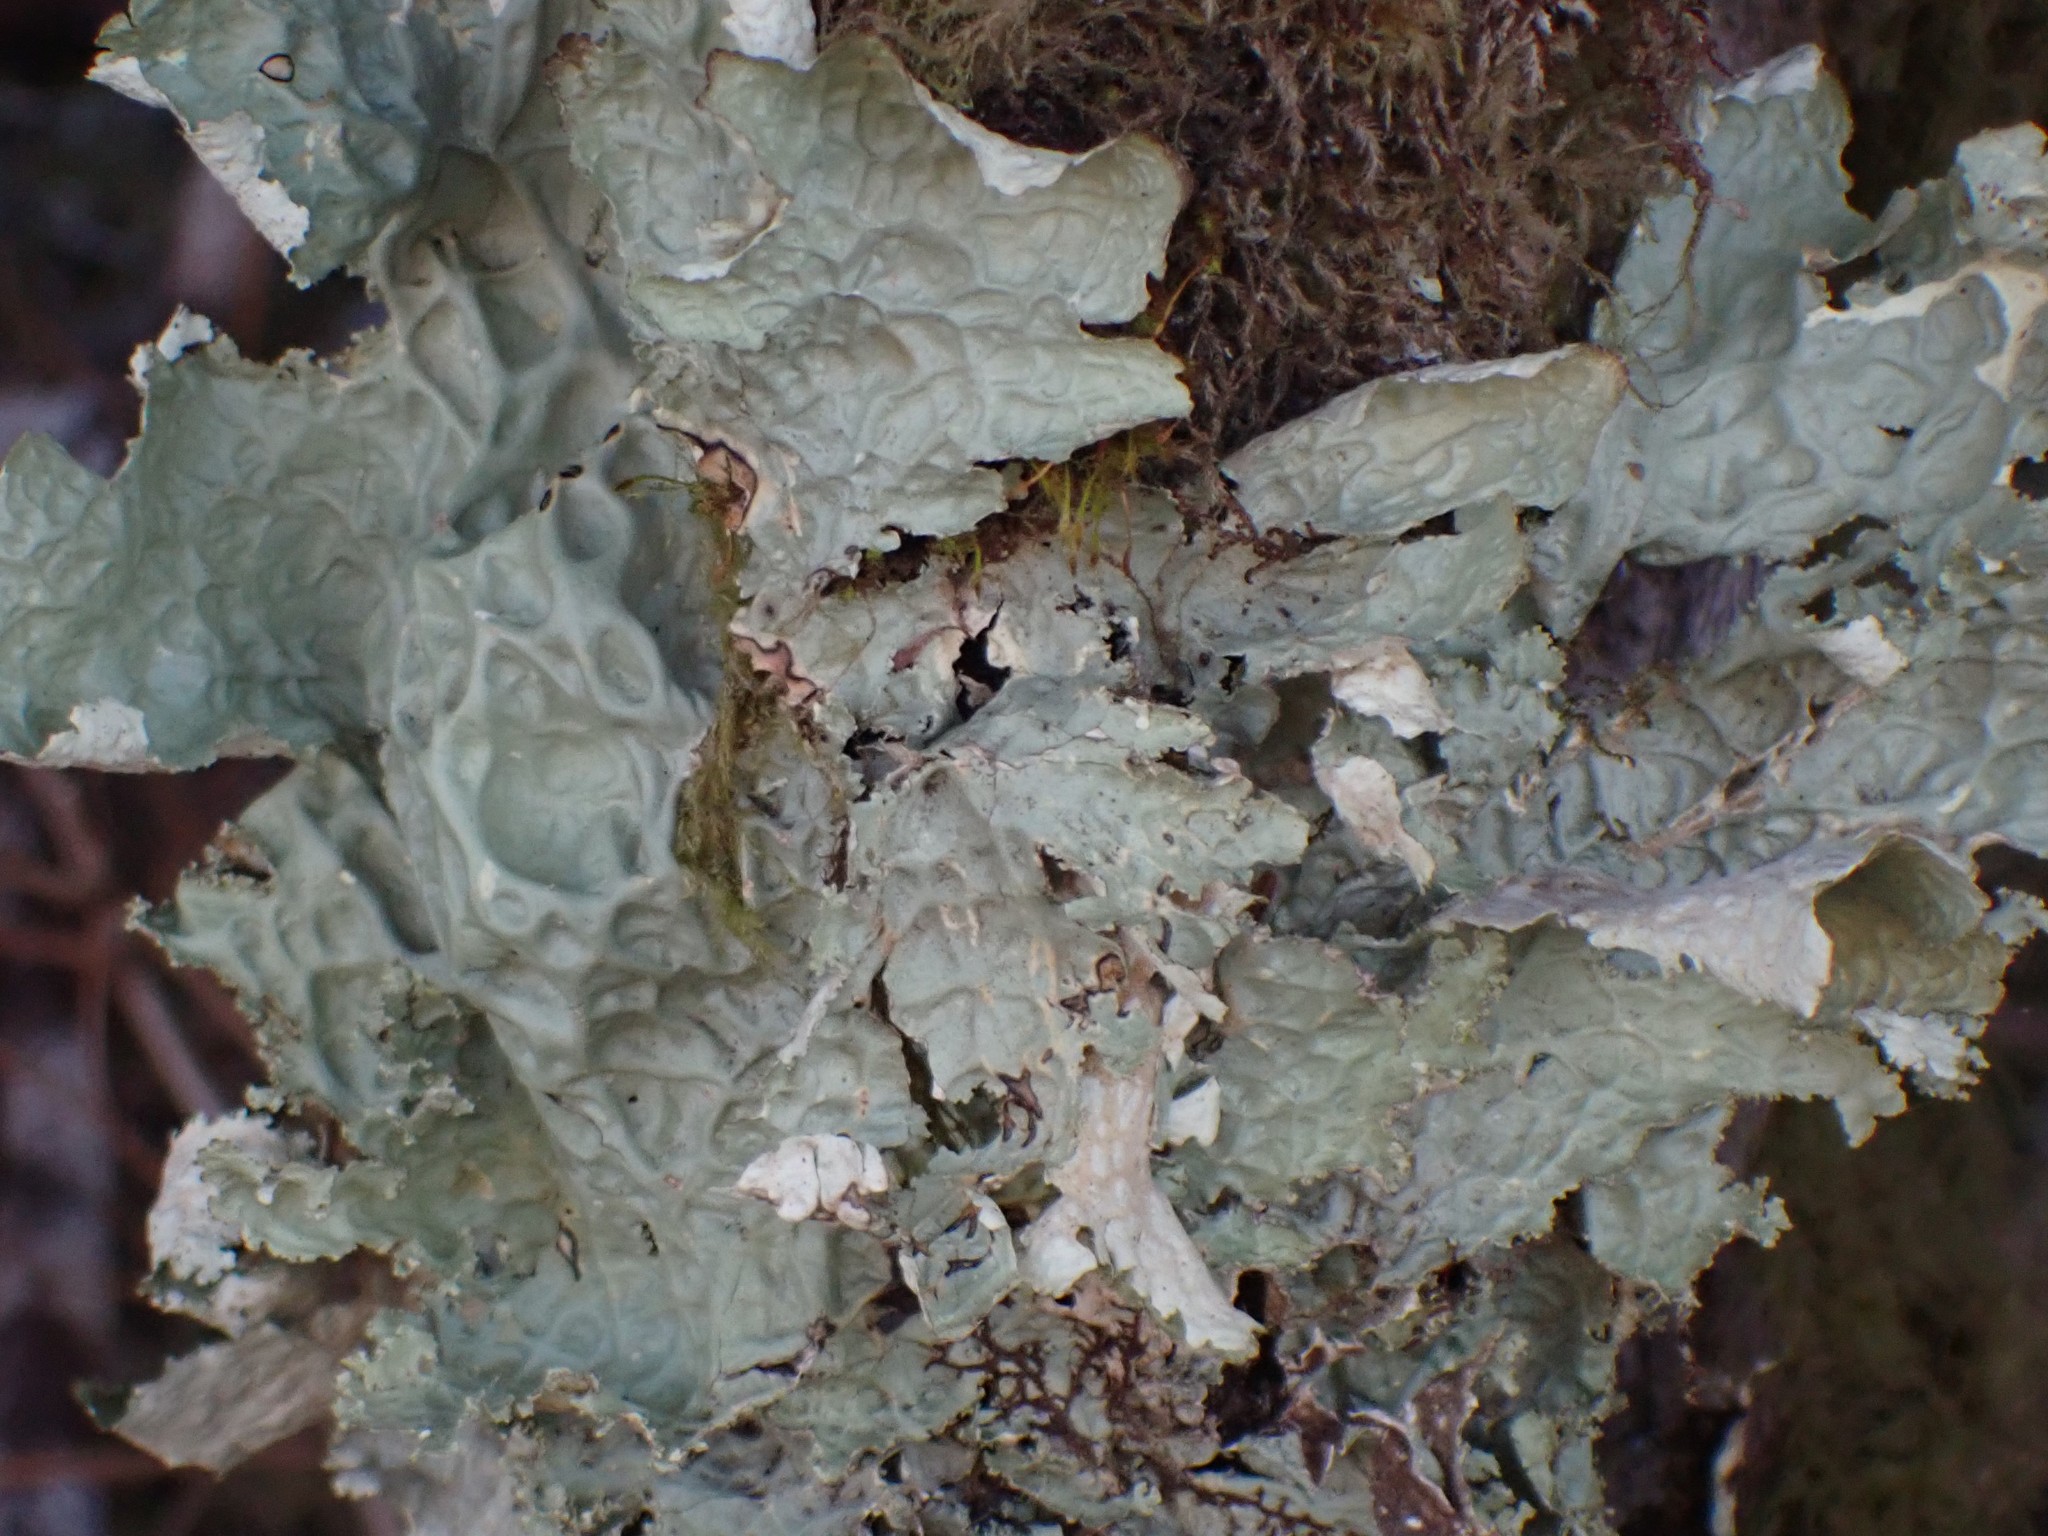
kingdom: Fungi
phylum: Ascomycota
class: Lecanoromycetes
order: Peltigerales
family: Lobariaceae
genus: Lobaria
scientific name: Lobaria oregana
